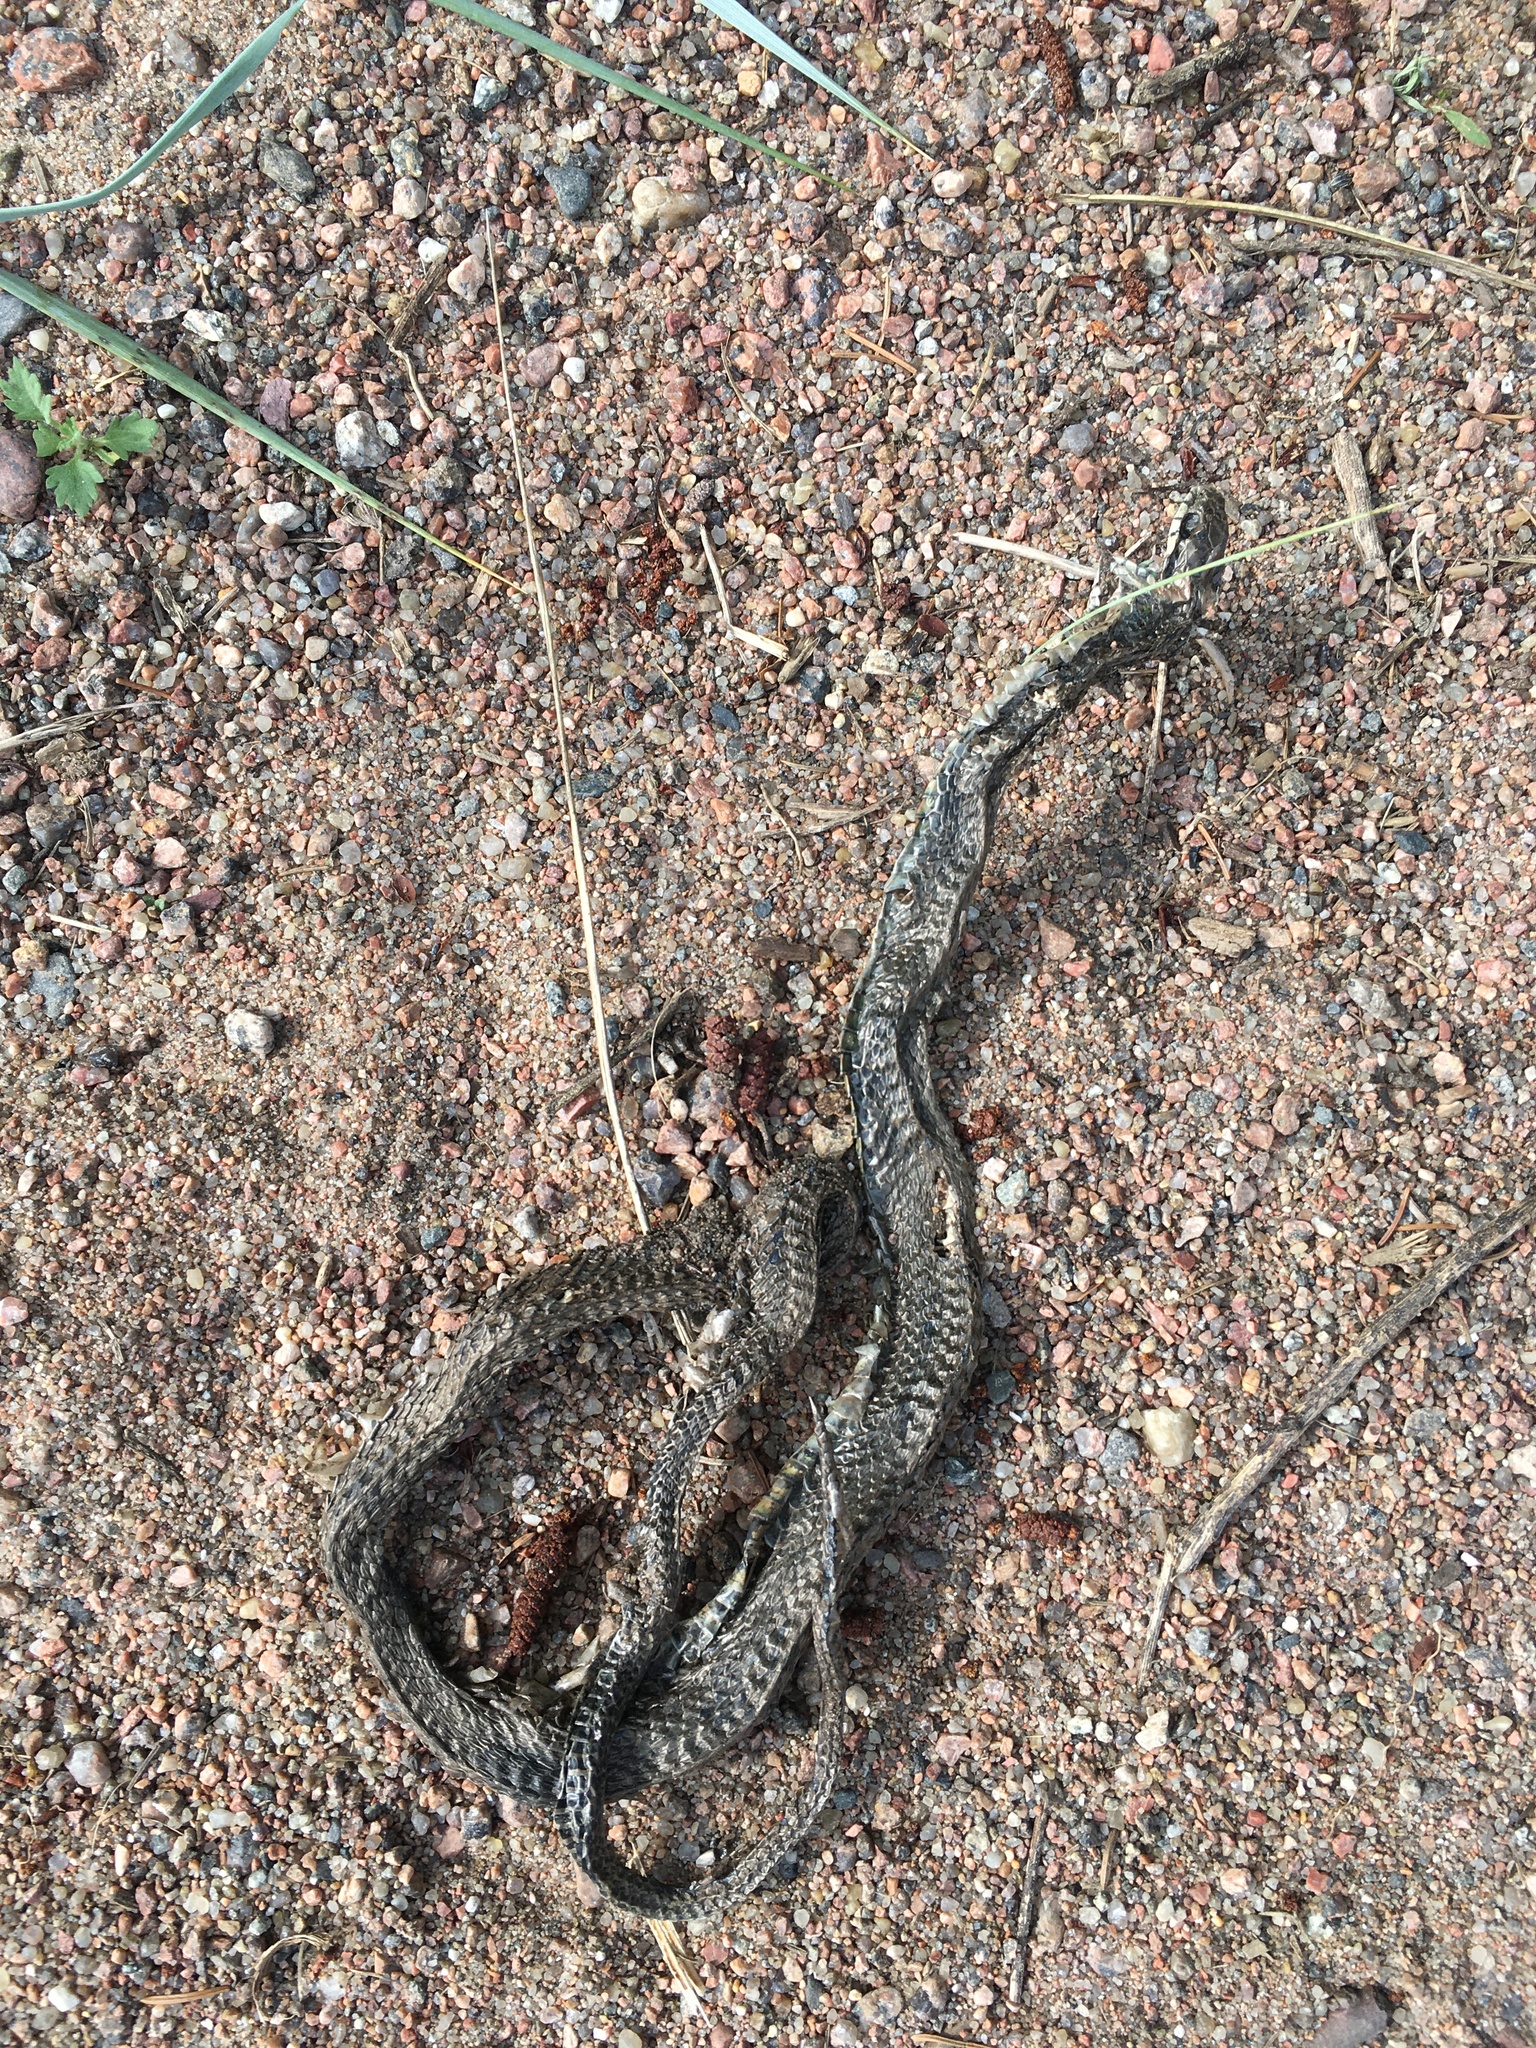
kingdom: Animalia
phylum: Chordata
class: Squamata
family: Colubridae
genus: Natrix
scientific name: Natrix natrix
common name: Grass snake
